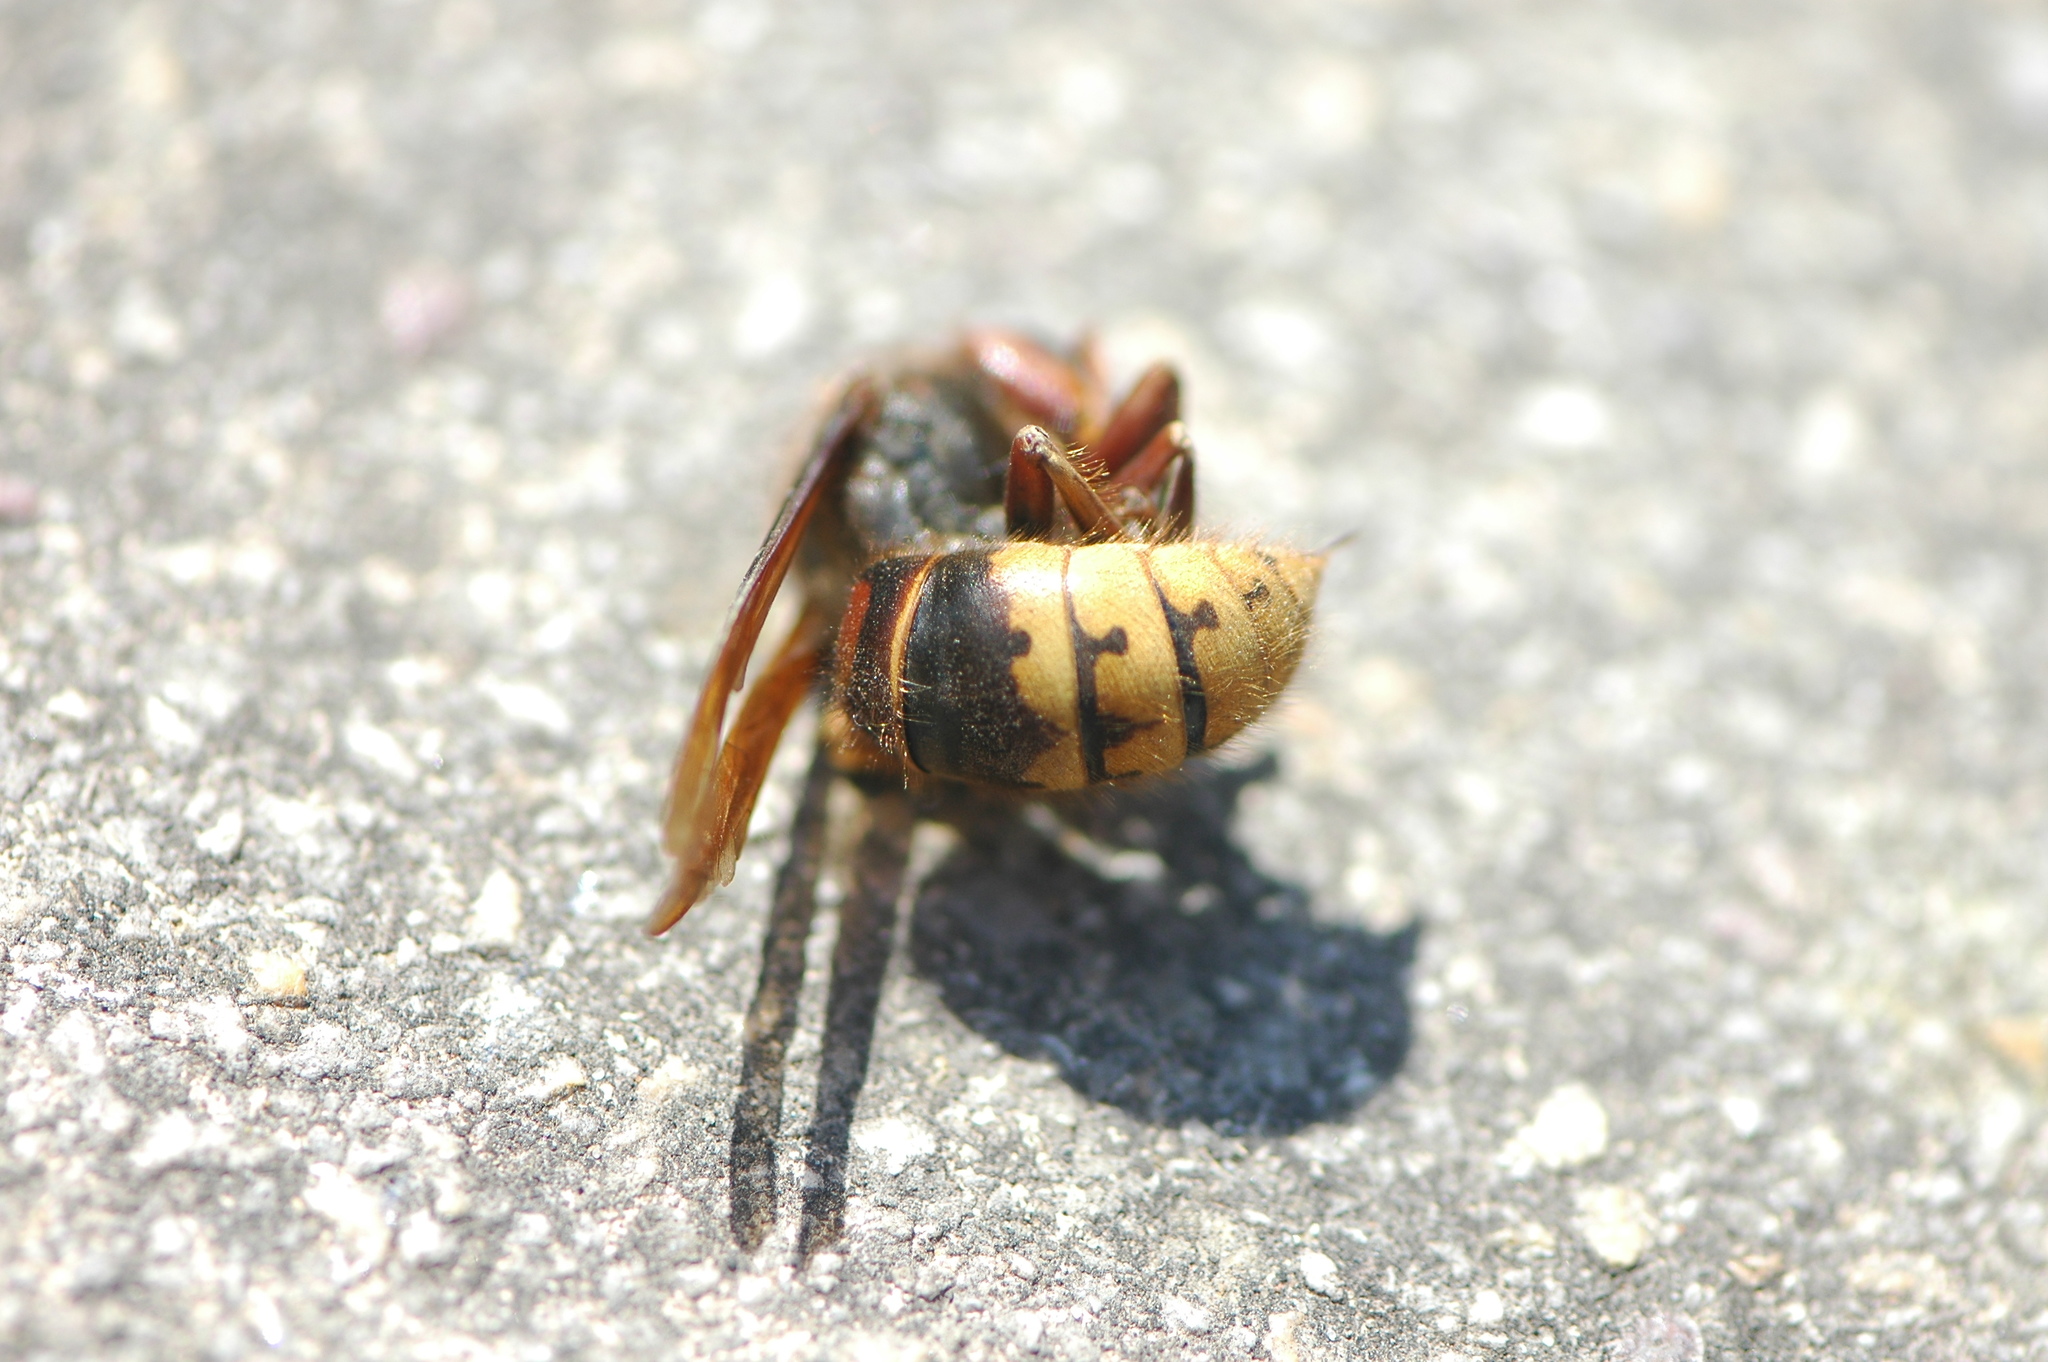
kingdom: Animalia
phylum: Arthropoda
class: Insecta
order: Hymenoptera
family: Vespidae
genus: Vespa
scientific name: Vespa crabro
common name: Hornet
